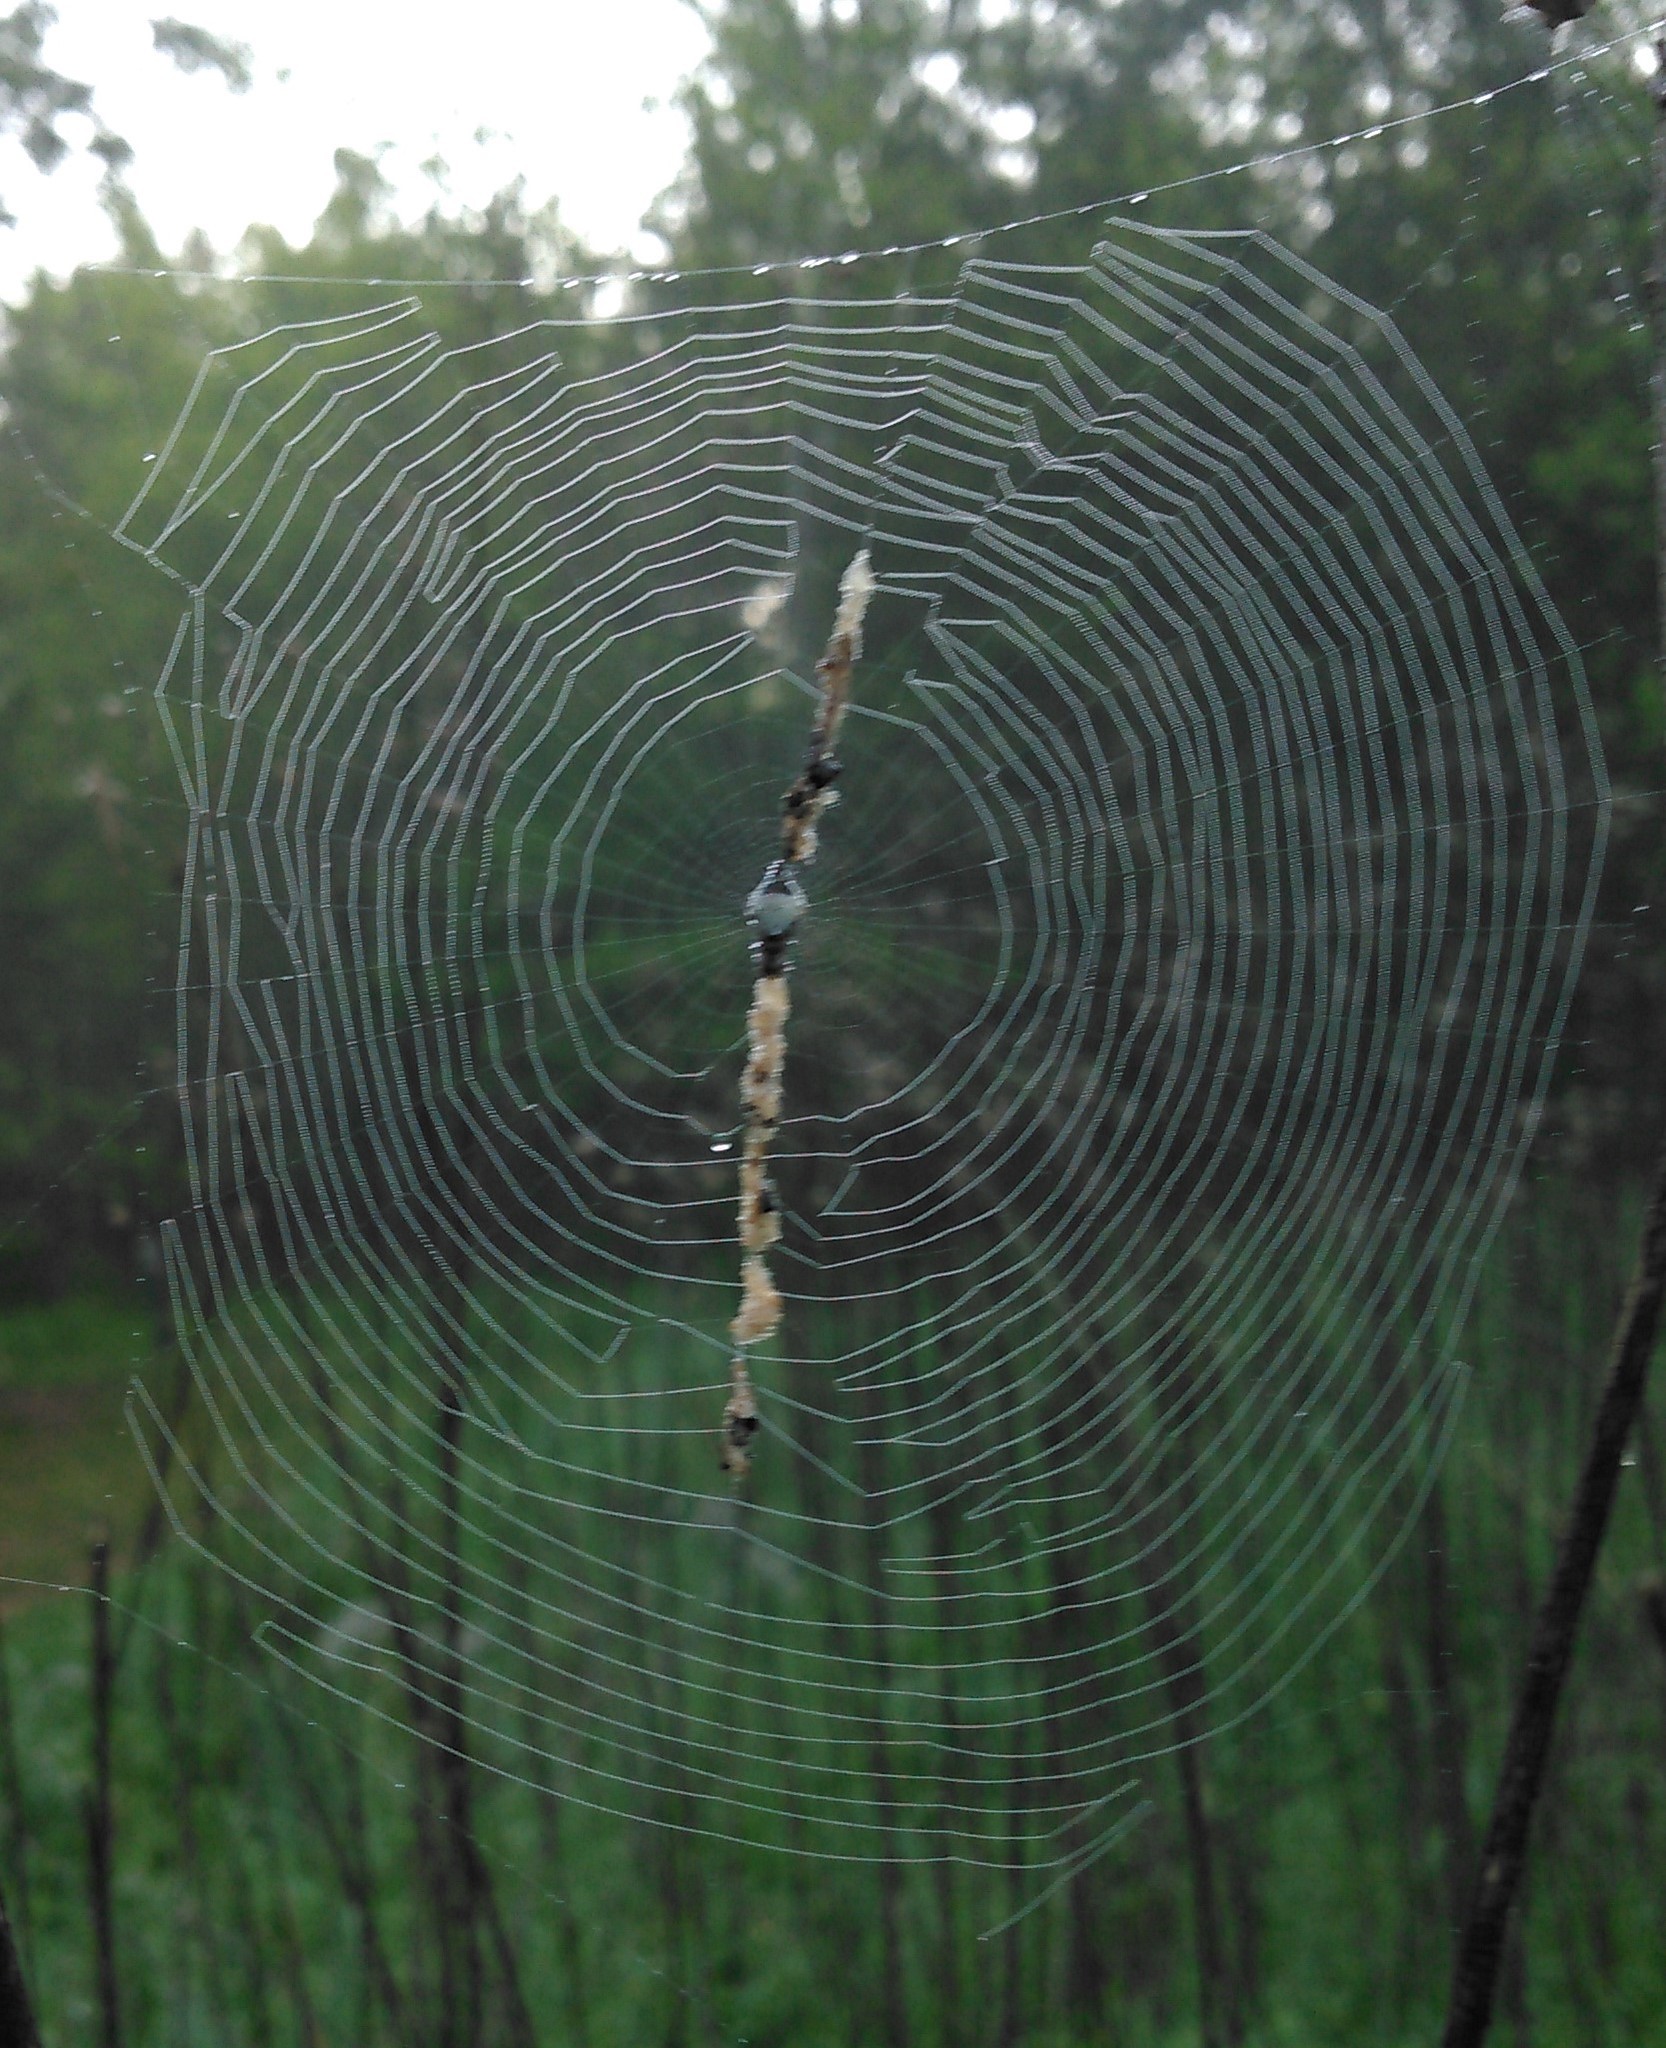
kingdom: Animalia
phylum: Arthropoda
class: Arachnida
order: Araneae
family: Araneidae
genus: Cyclosa
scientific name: Cyclosa turbinata
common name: Orb weavers
